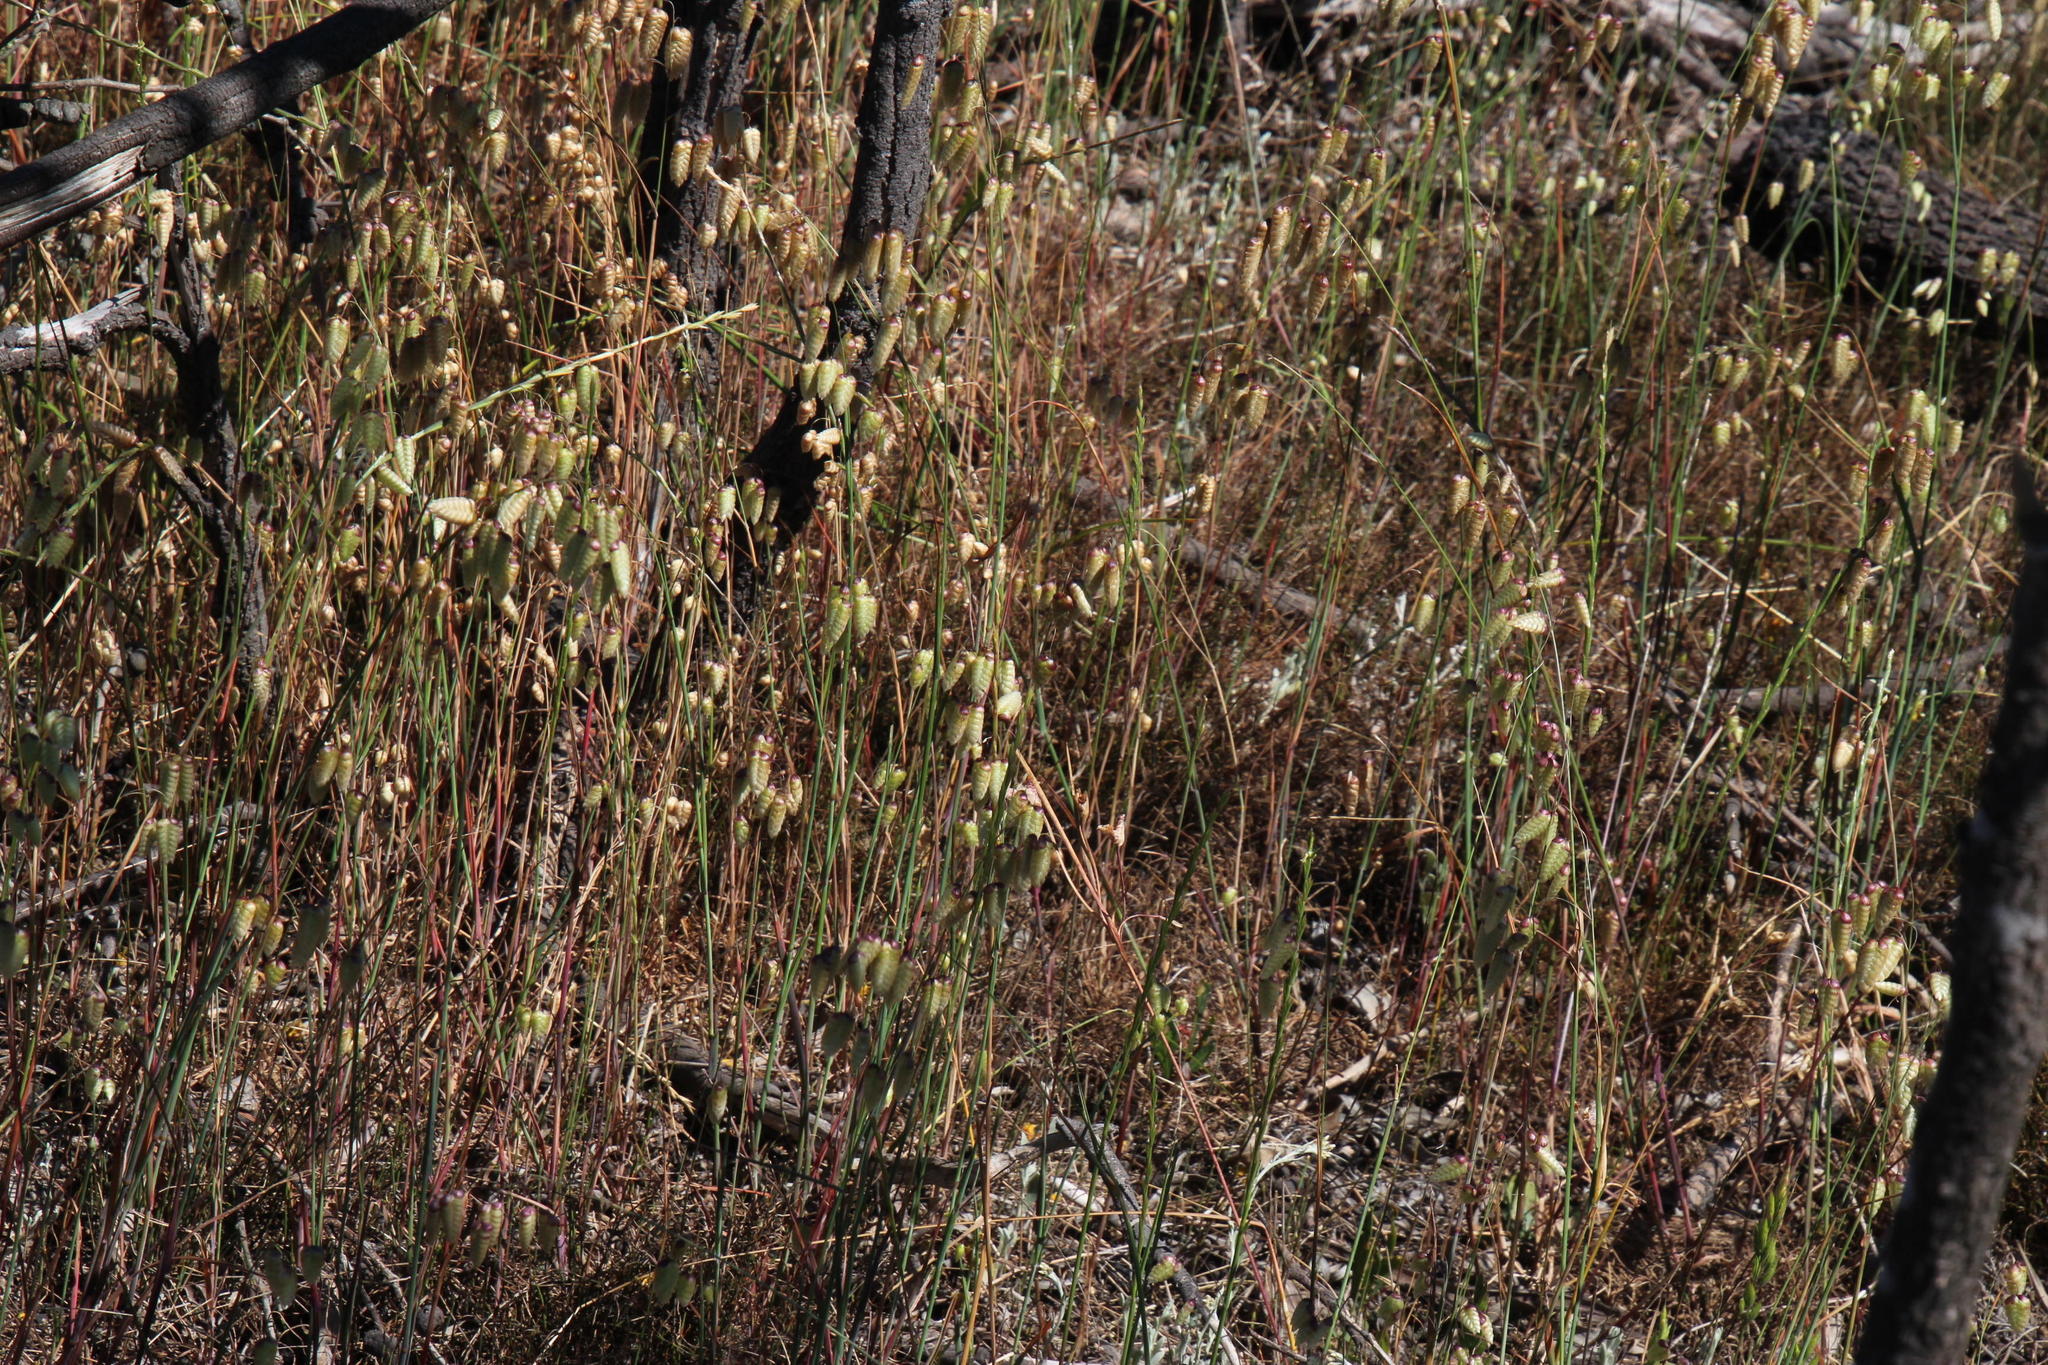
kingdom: Plantae
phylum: Tracheophyta
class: Liliopsida
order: Poales
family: Poaceae
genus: Briza
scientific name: Briza maxima
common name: Big quakinggrass
